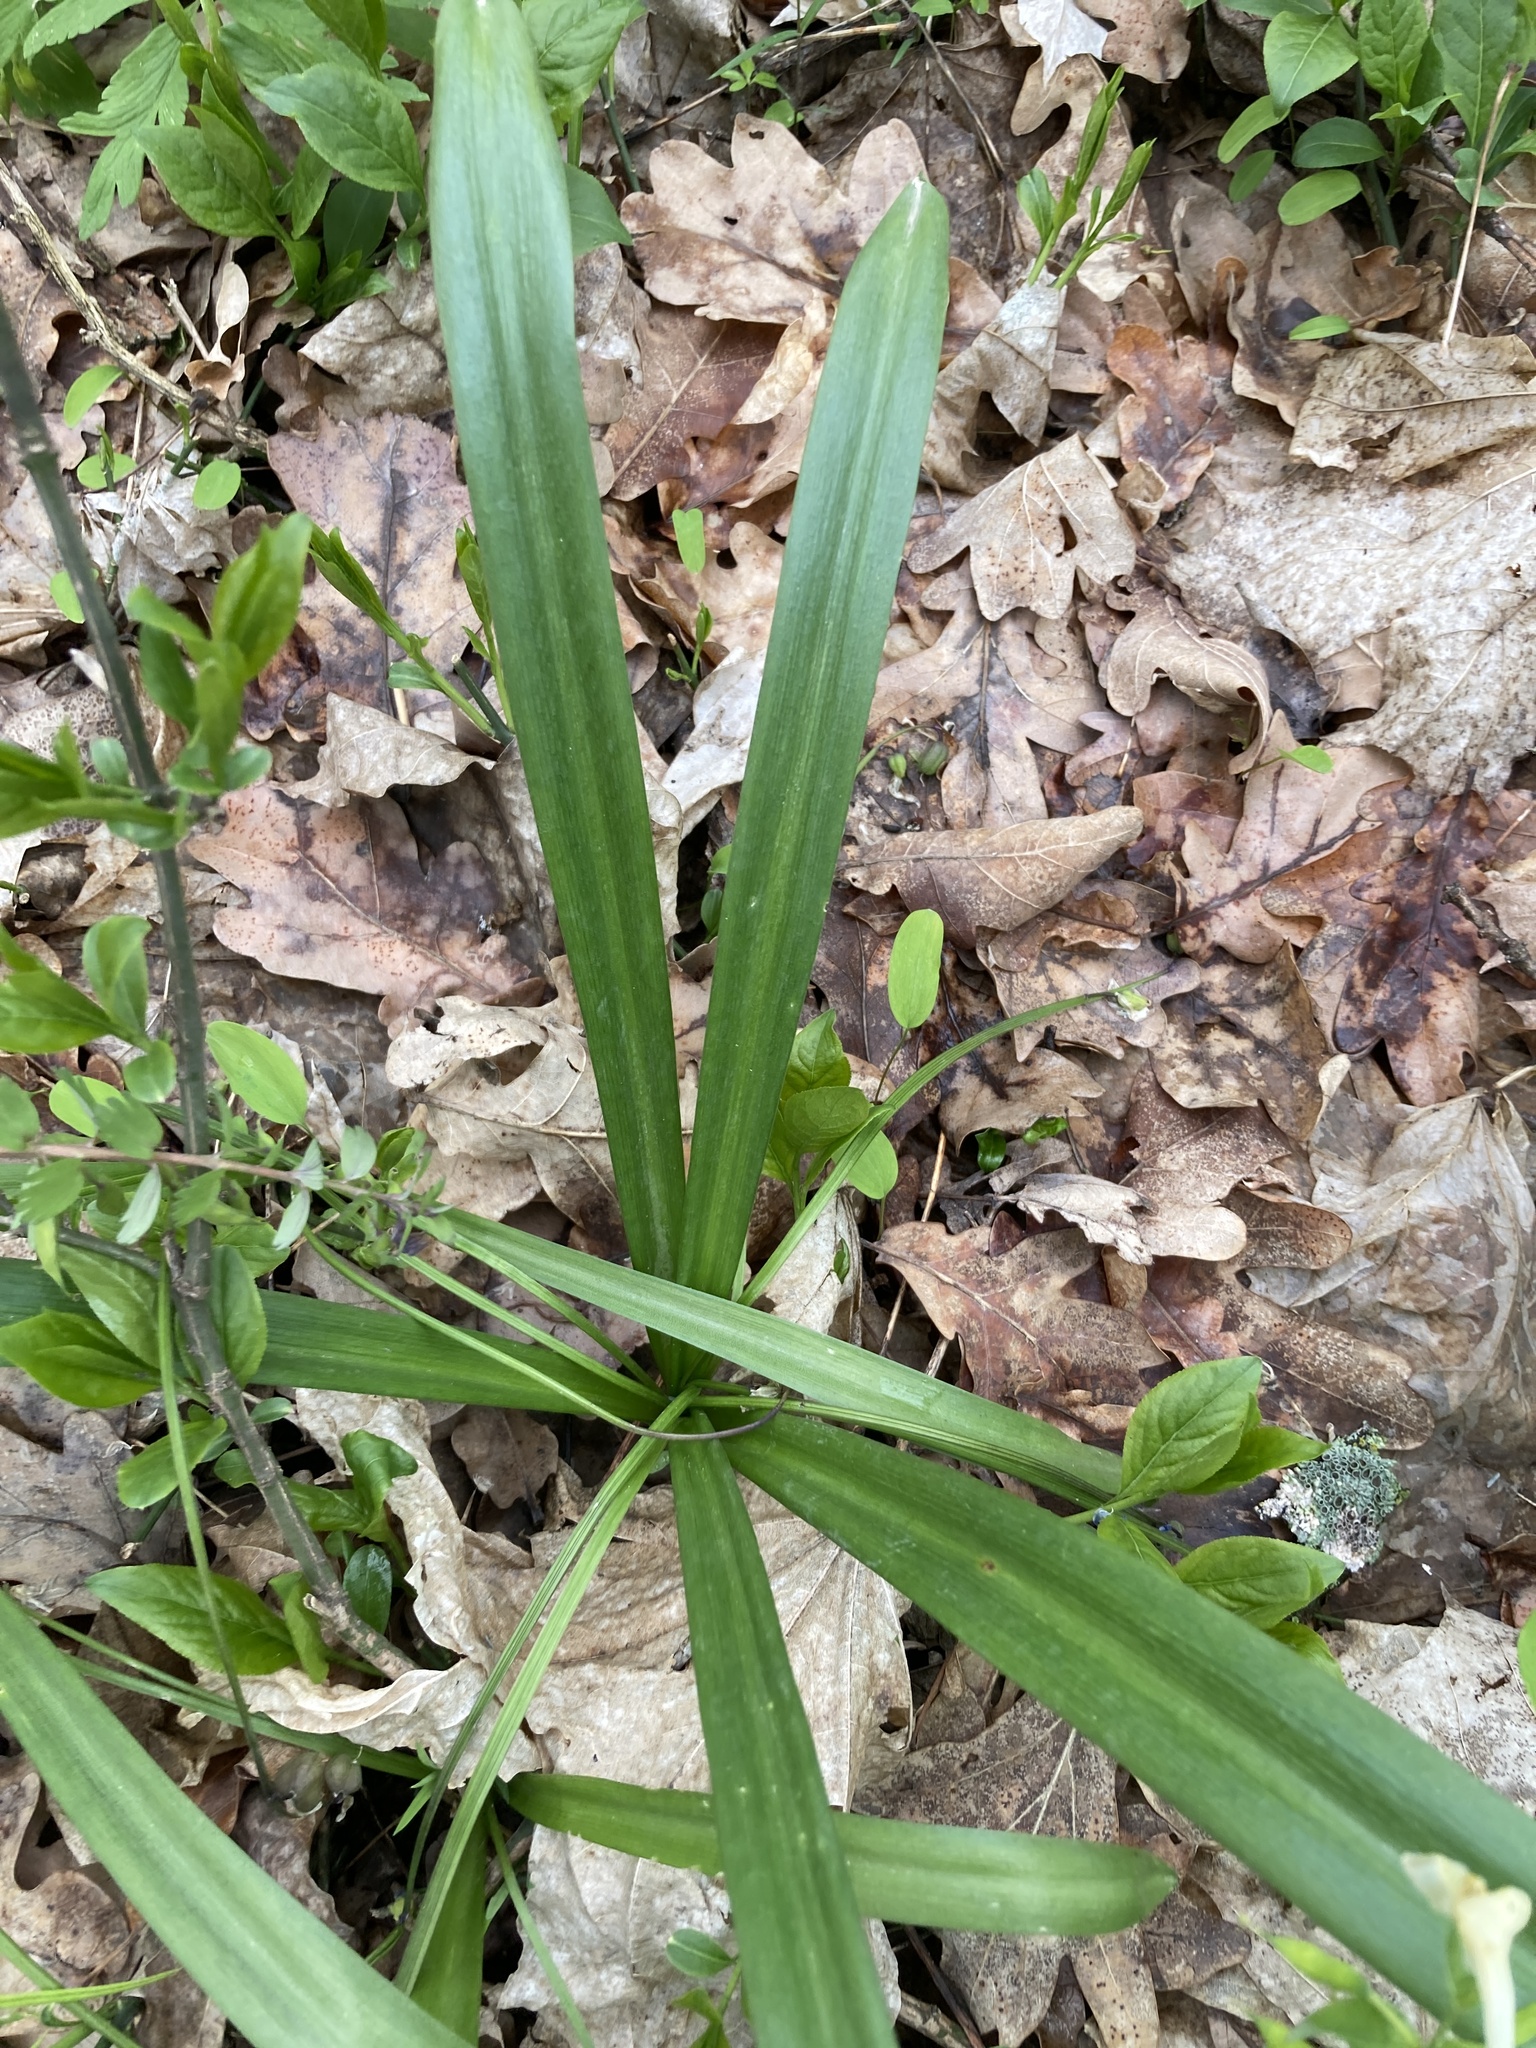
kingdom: Plantae
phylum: Tracheophyta
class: Liliopsida
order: Asparagales
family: Asparagaceae
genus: Scilla
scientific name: Scilla siberica
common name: Siberian squill
